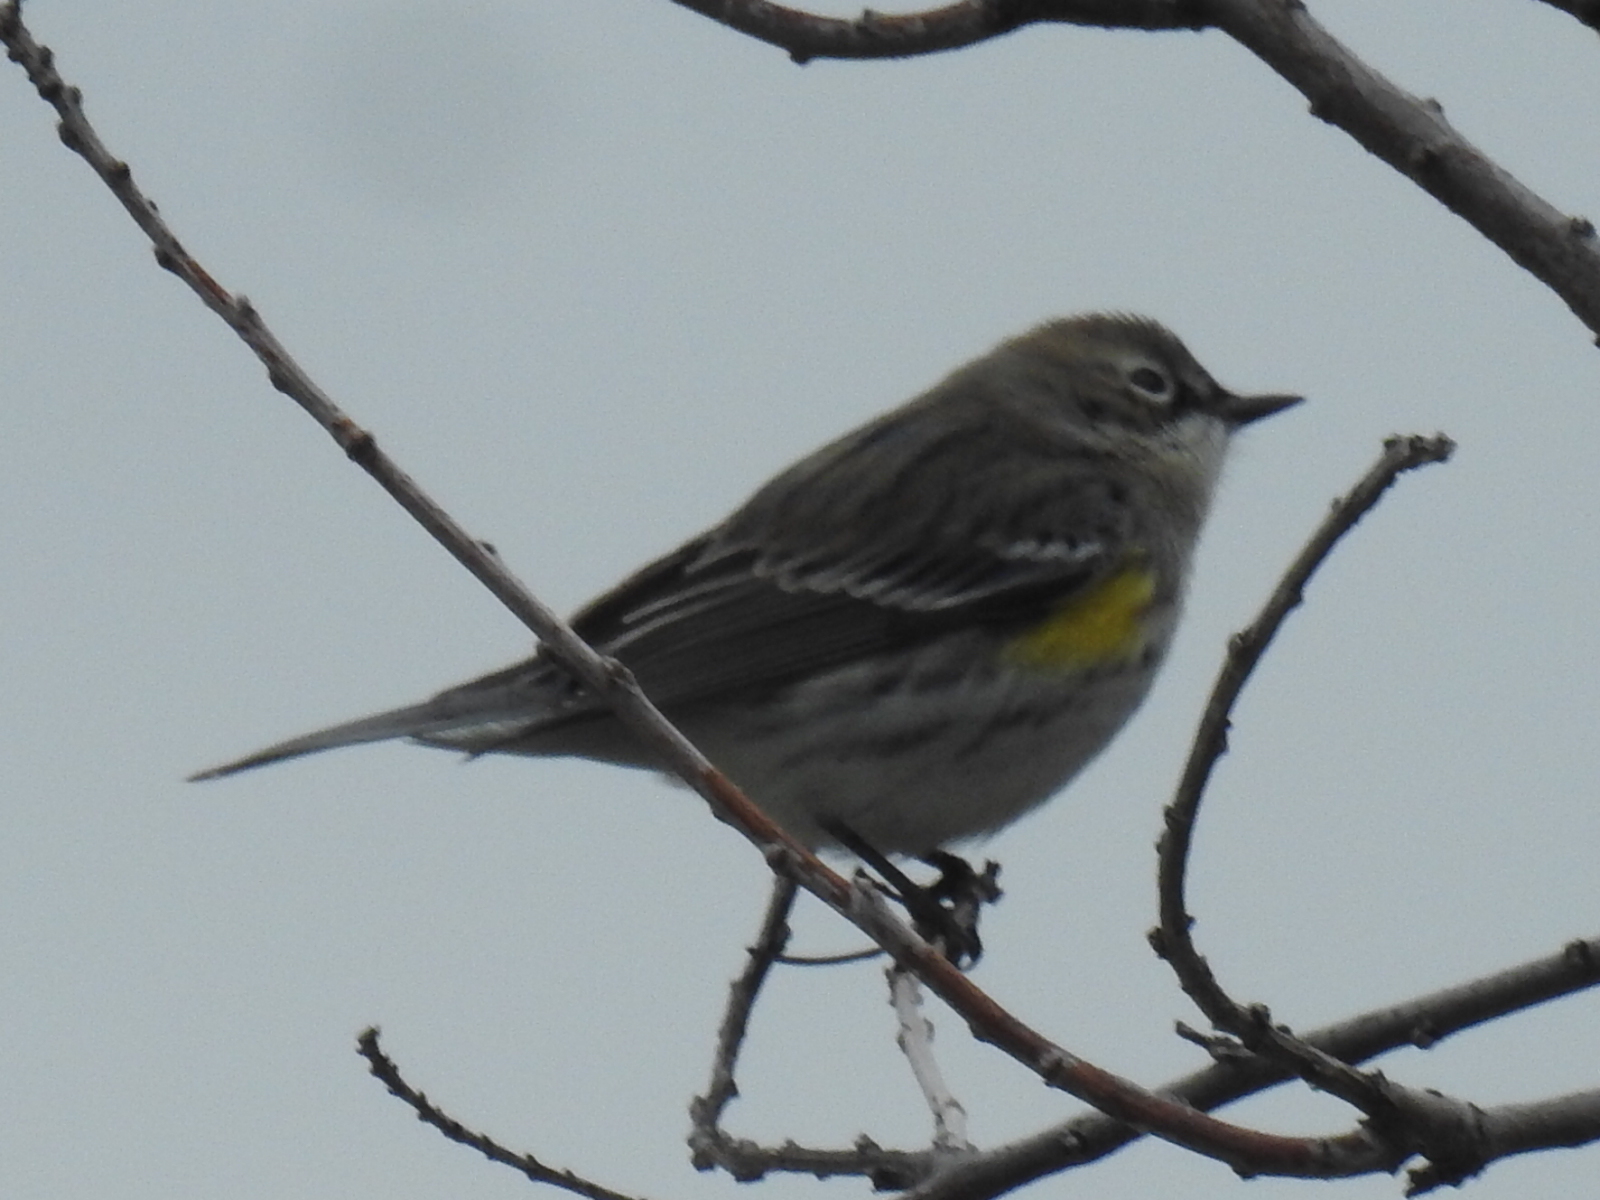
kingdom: Animalia
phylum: Chordata
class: Aves
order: Passeriformes
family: Parulidae
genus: Setophaga
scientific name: Setophaga coronata
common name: Myrtle warbler
